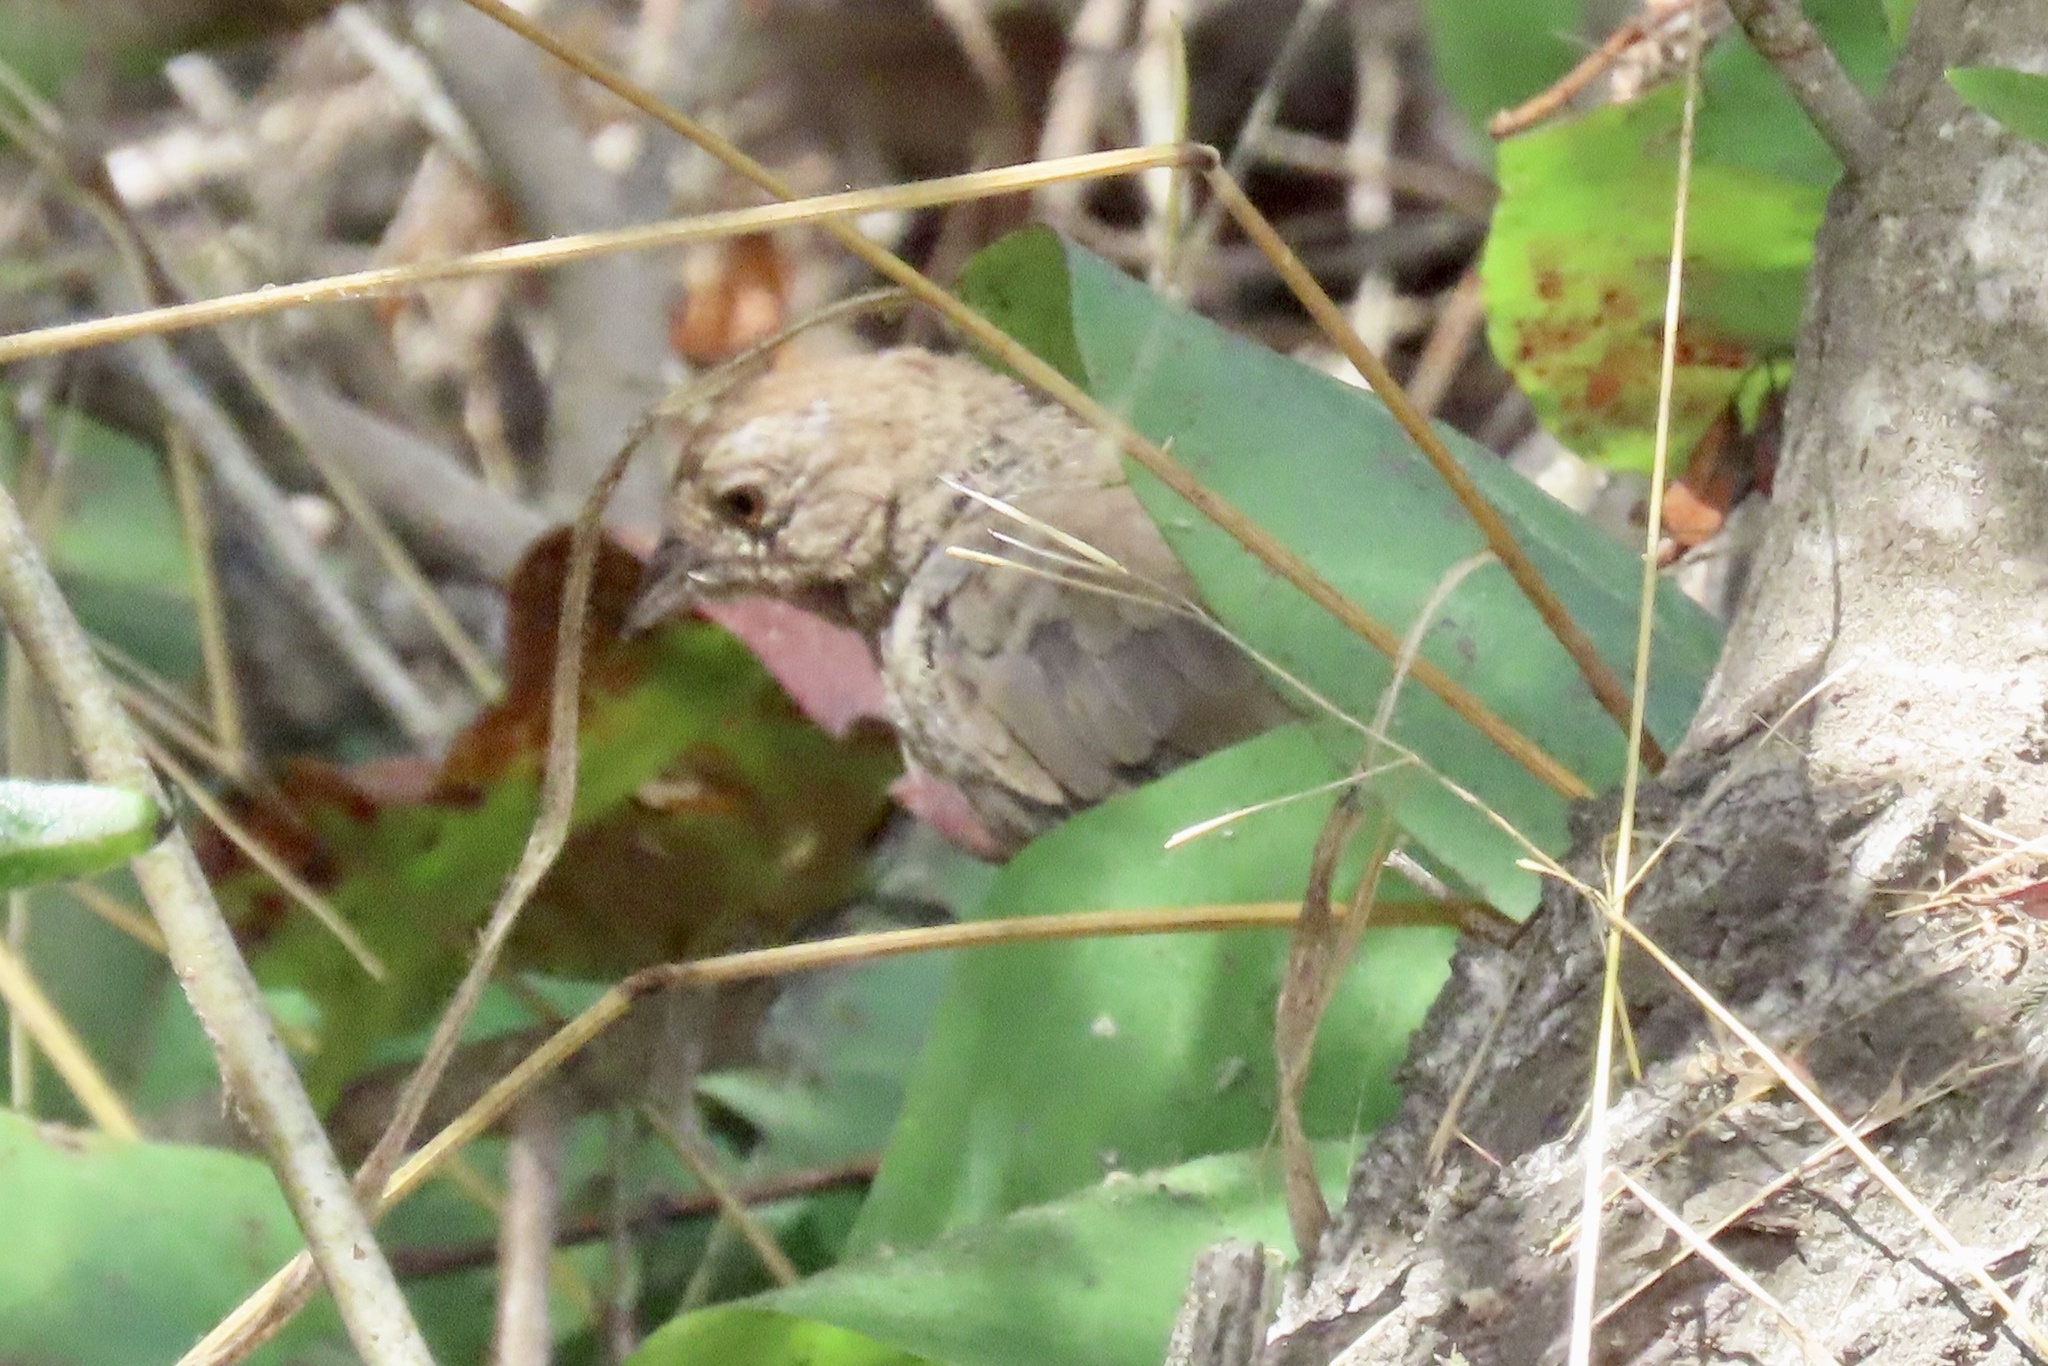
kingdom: Animalia
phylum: Chordata
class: Aves
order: Passeriformes
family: Passerellidae
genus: Melozone
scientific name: Melozone crissalis
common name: California towhee
